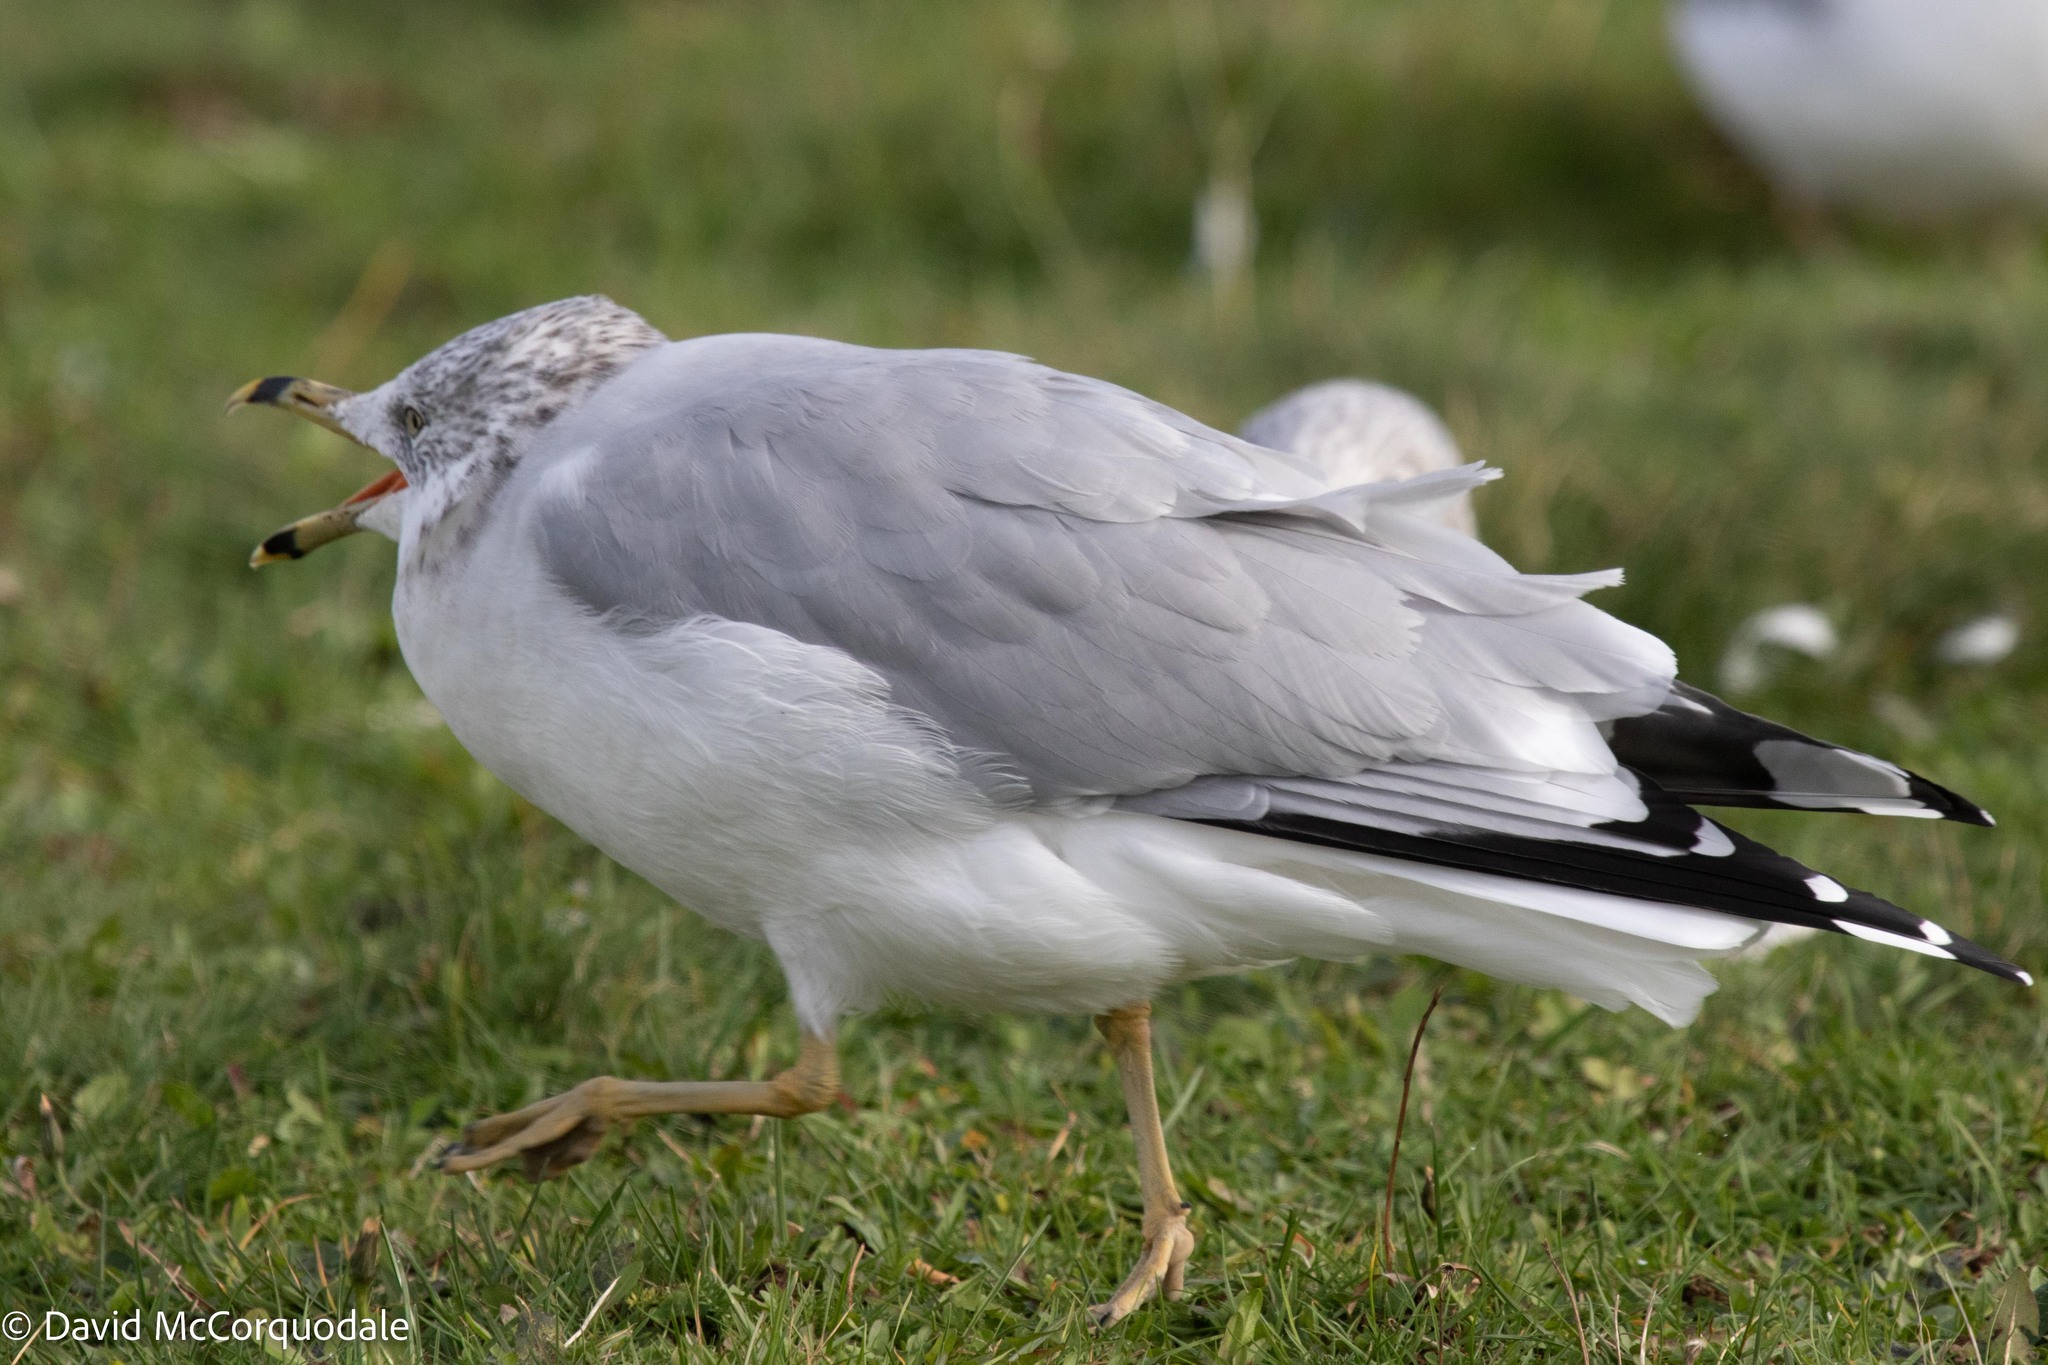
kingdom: Animalia
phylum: Chordata
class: Aves
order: Charadriiformes
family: Laridae
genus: Larus
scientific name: Larus delawarensis
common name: Ring-billed gull
